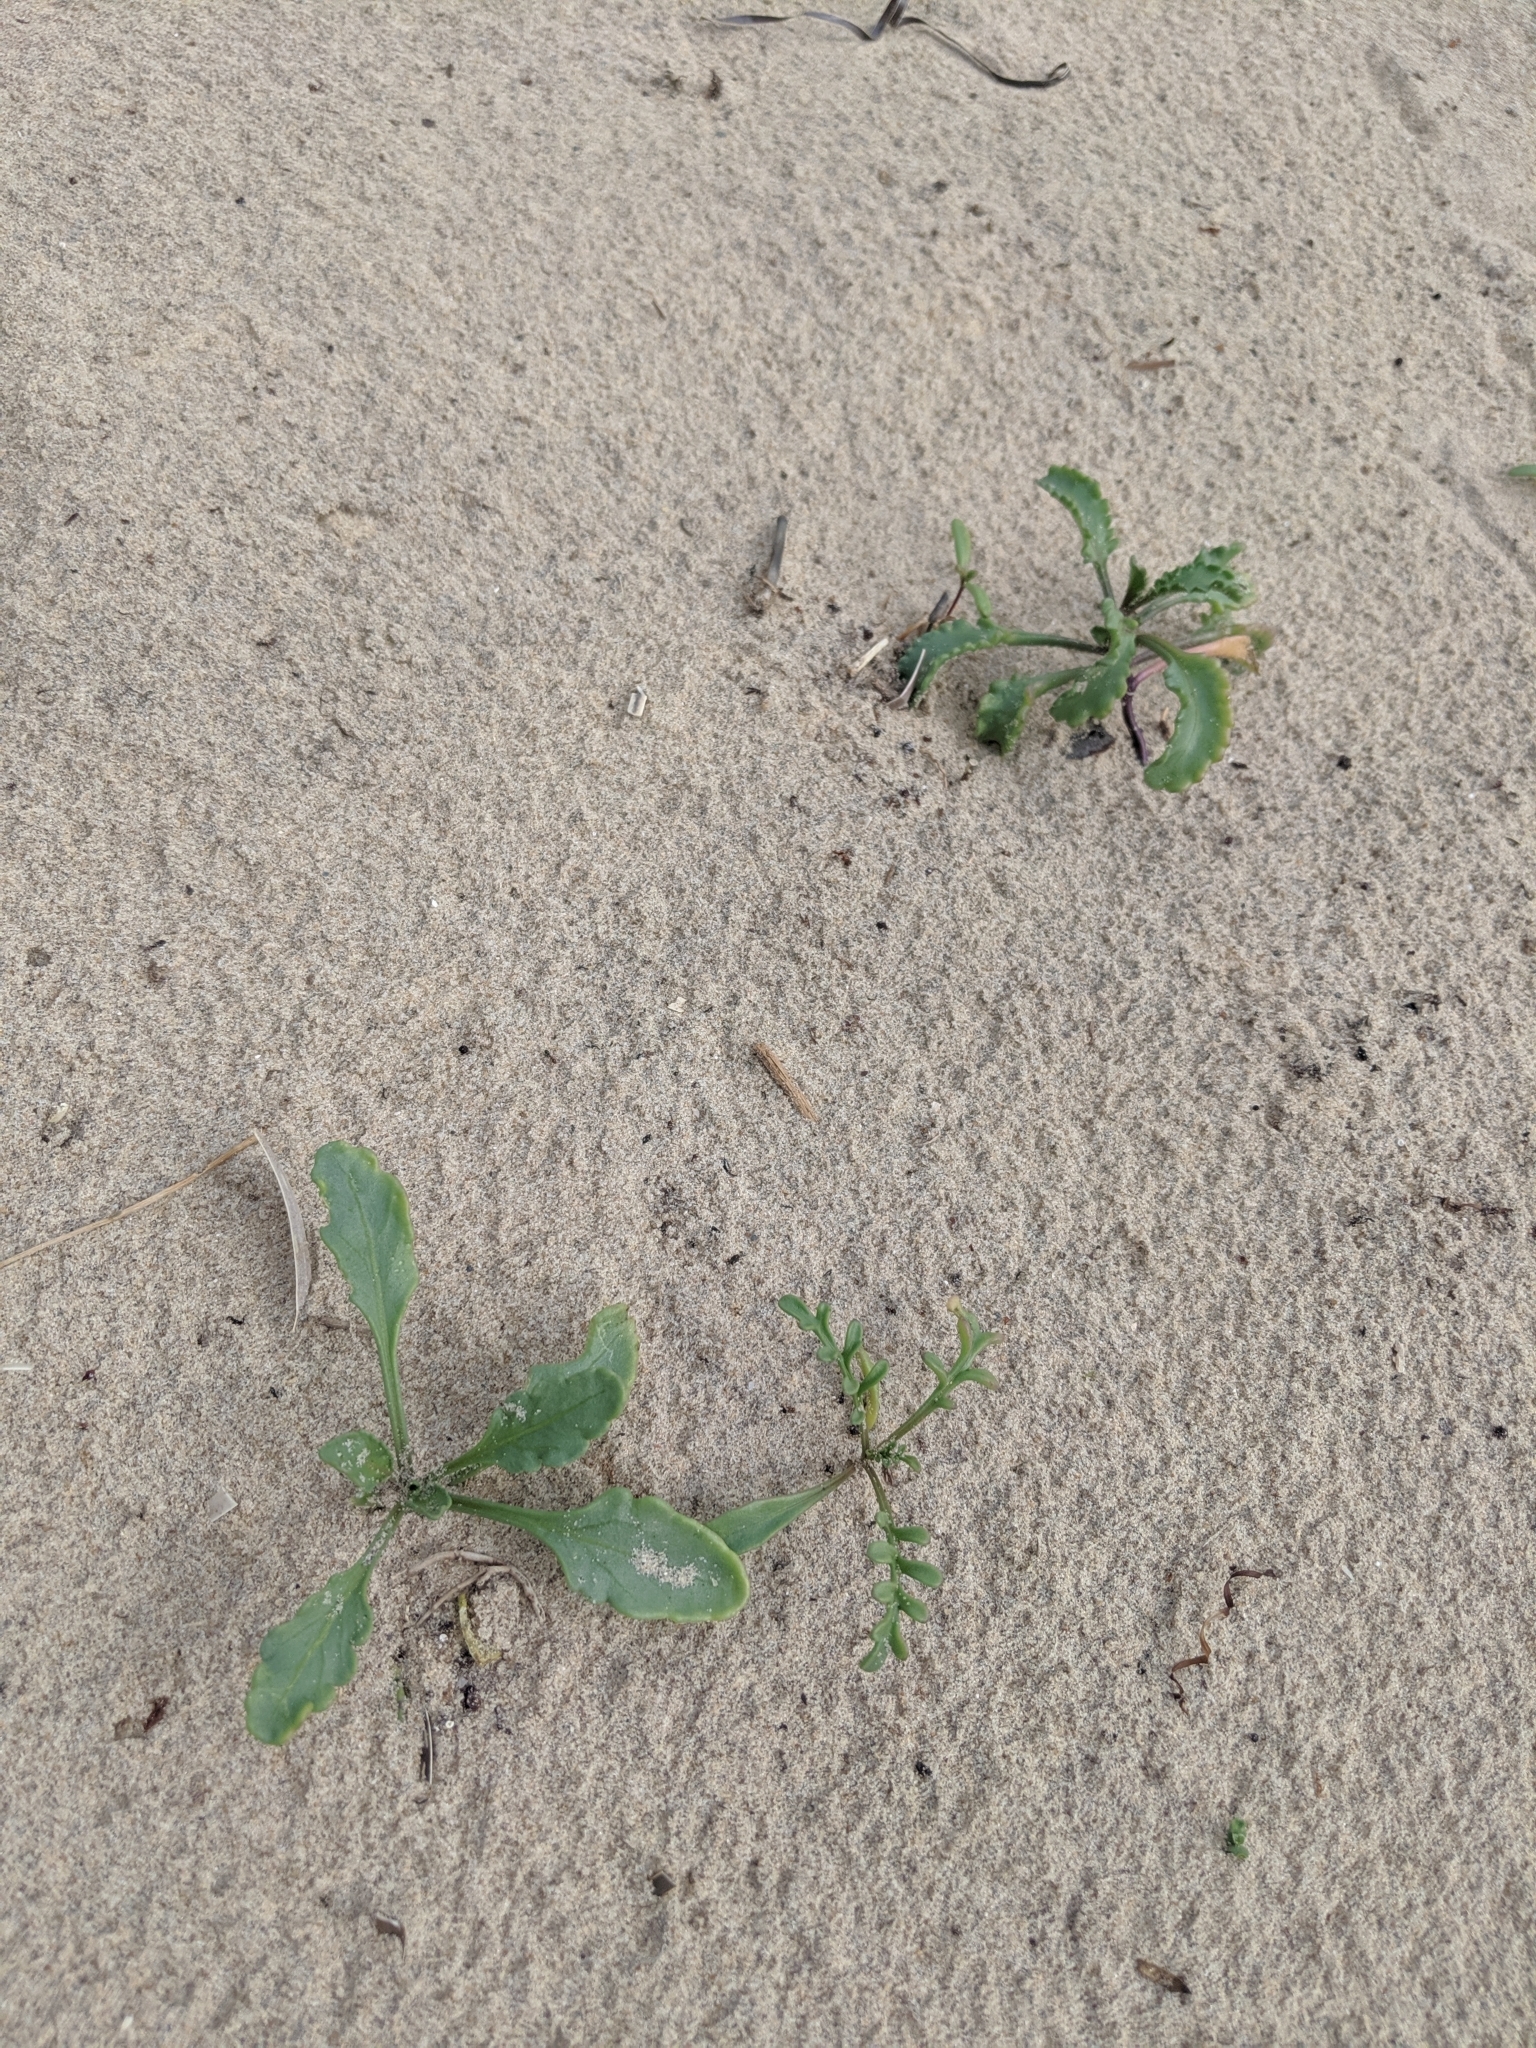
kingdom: Plantae
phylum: Tracheophyta
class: Magnoliopsida
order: Brassicales
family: Brassicaceae
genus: Cakile
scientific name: Cakile maritima
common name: Sea rocket
